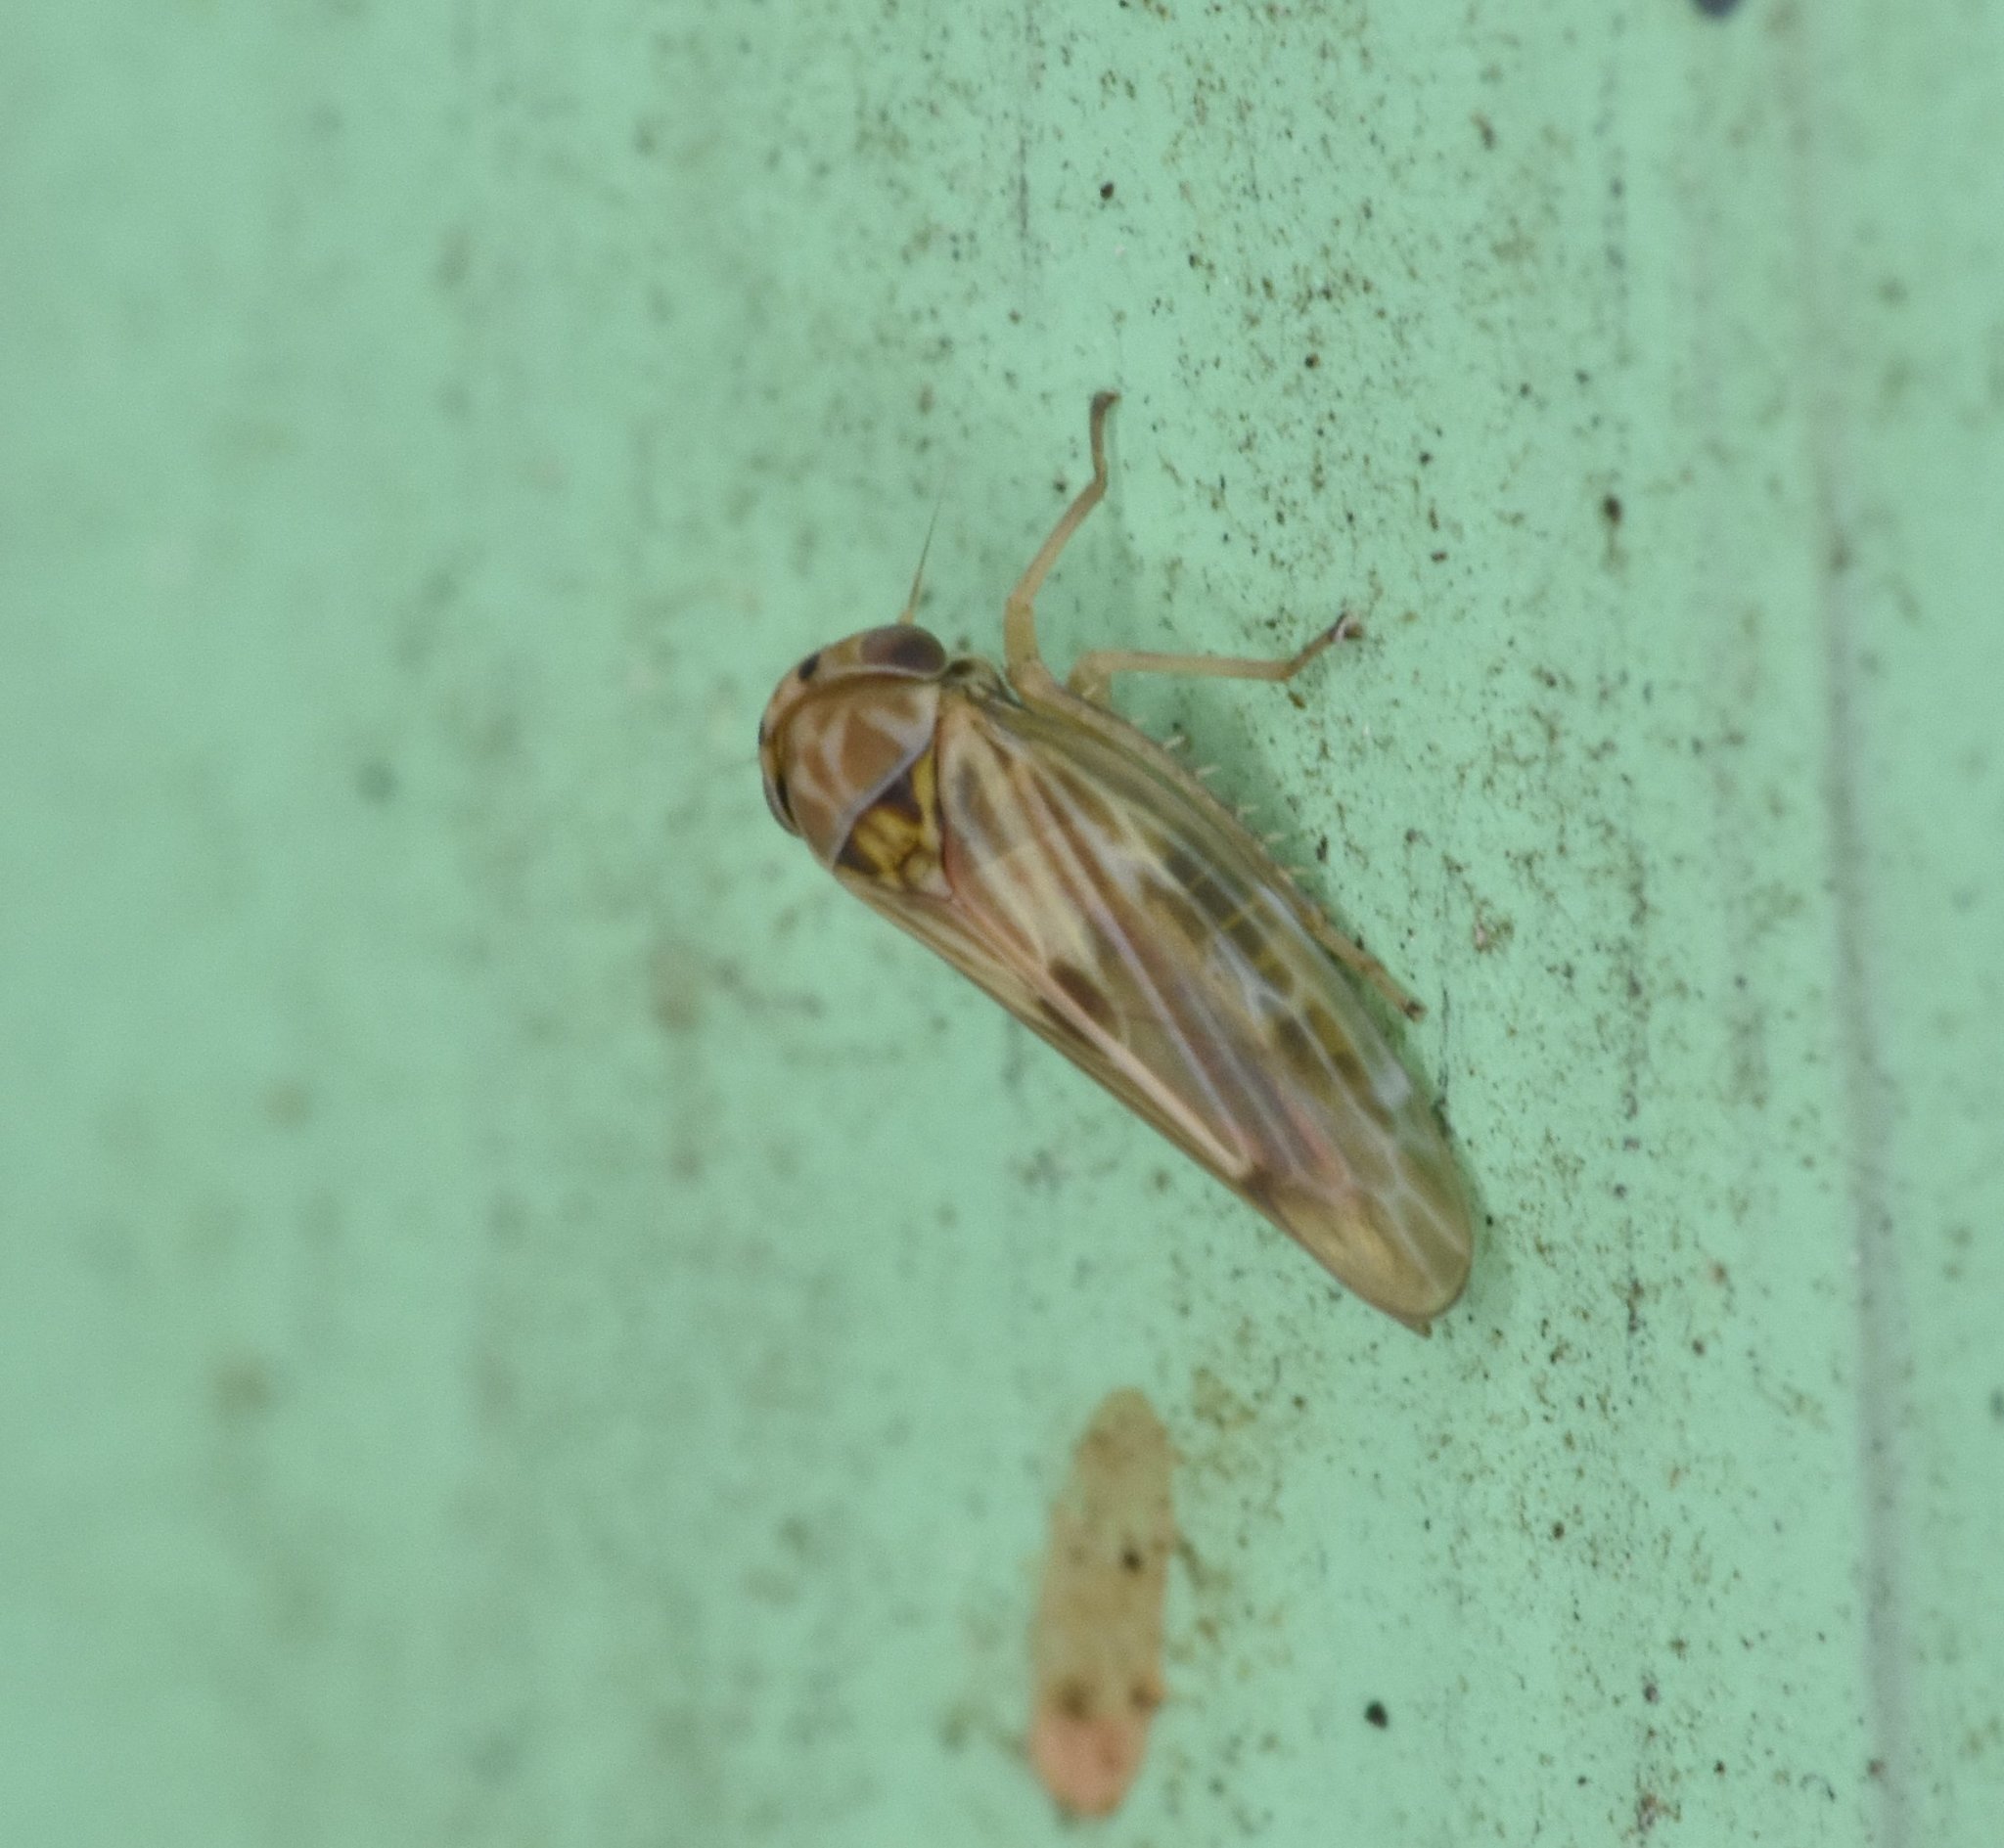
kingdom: Animalia
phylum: Arthropoda
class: Insecta
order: Hemiptera
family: Cicadellidae
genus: Agallia
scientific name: Agallia albidula
